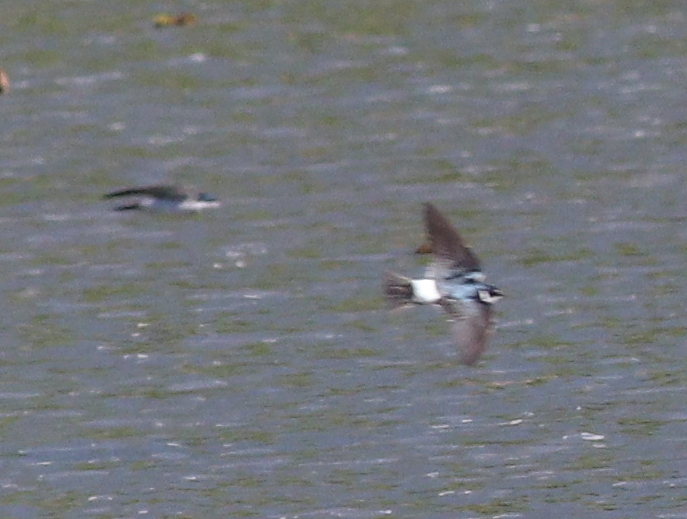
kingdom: Animalia
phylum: Chordata
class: Aves
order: Passeriformes
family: Hirundinidae
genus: Tachycineta
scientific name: Tachycineta leucorrhoa
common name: White-rumped swallow
